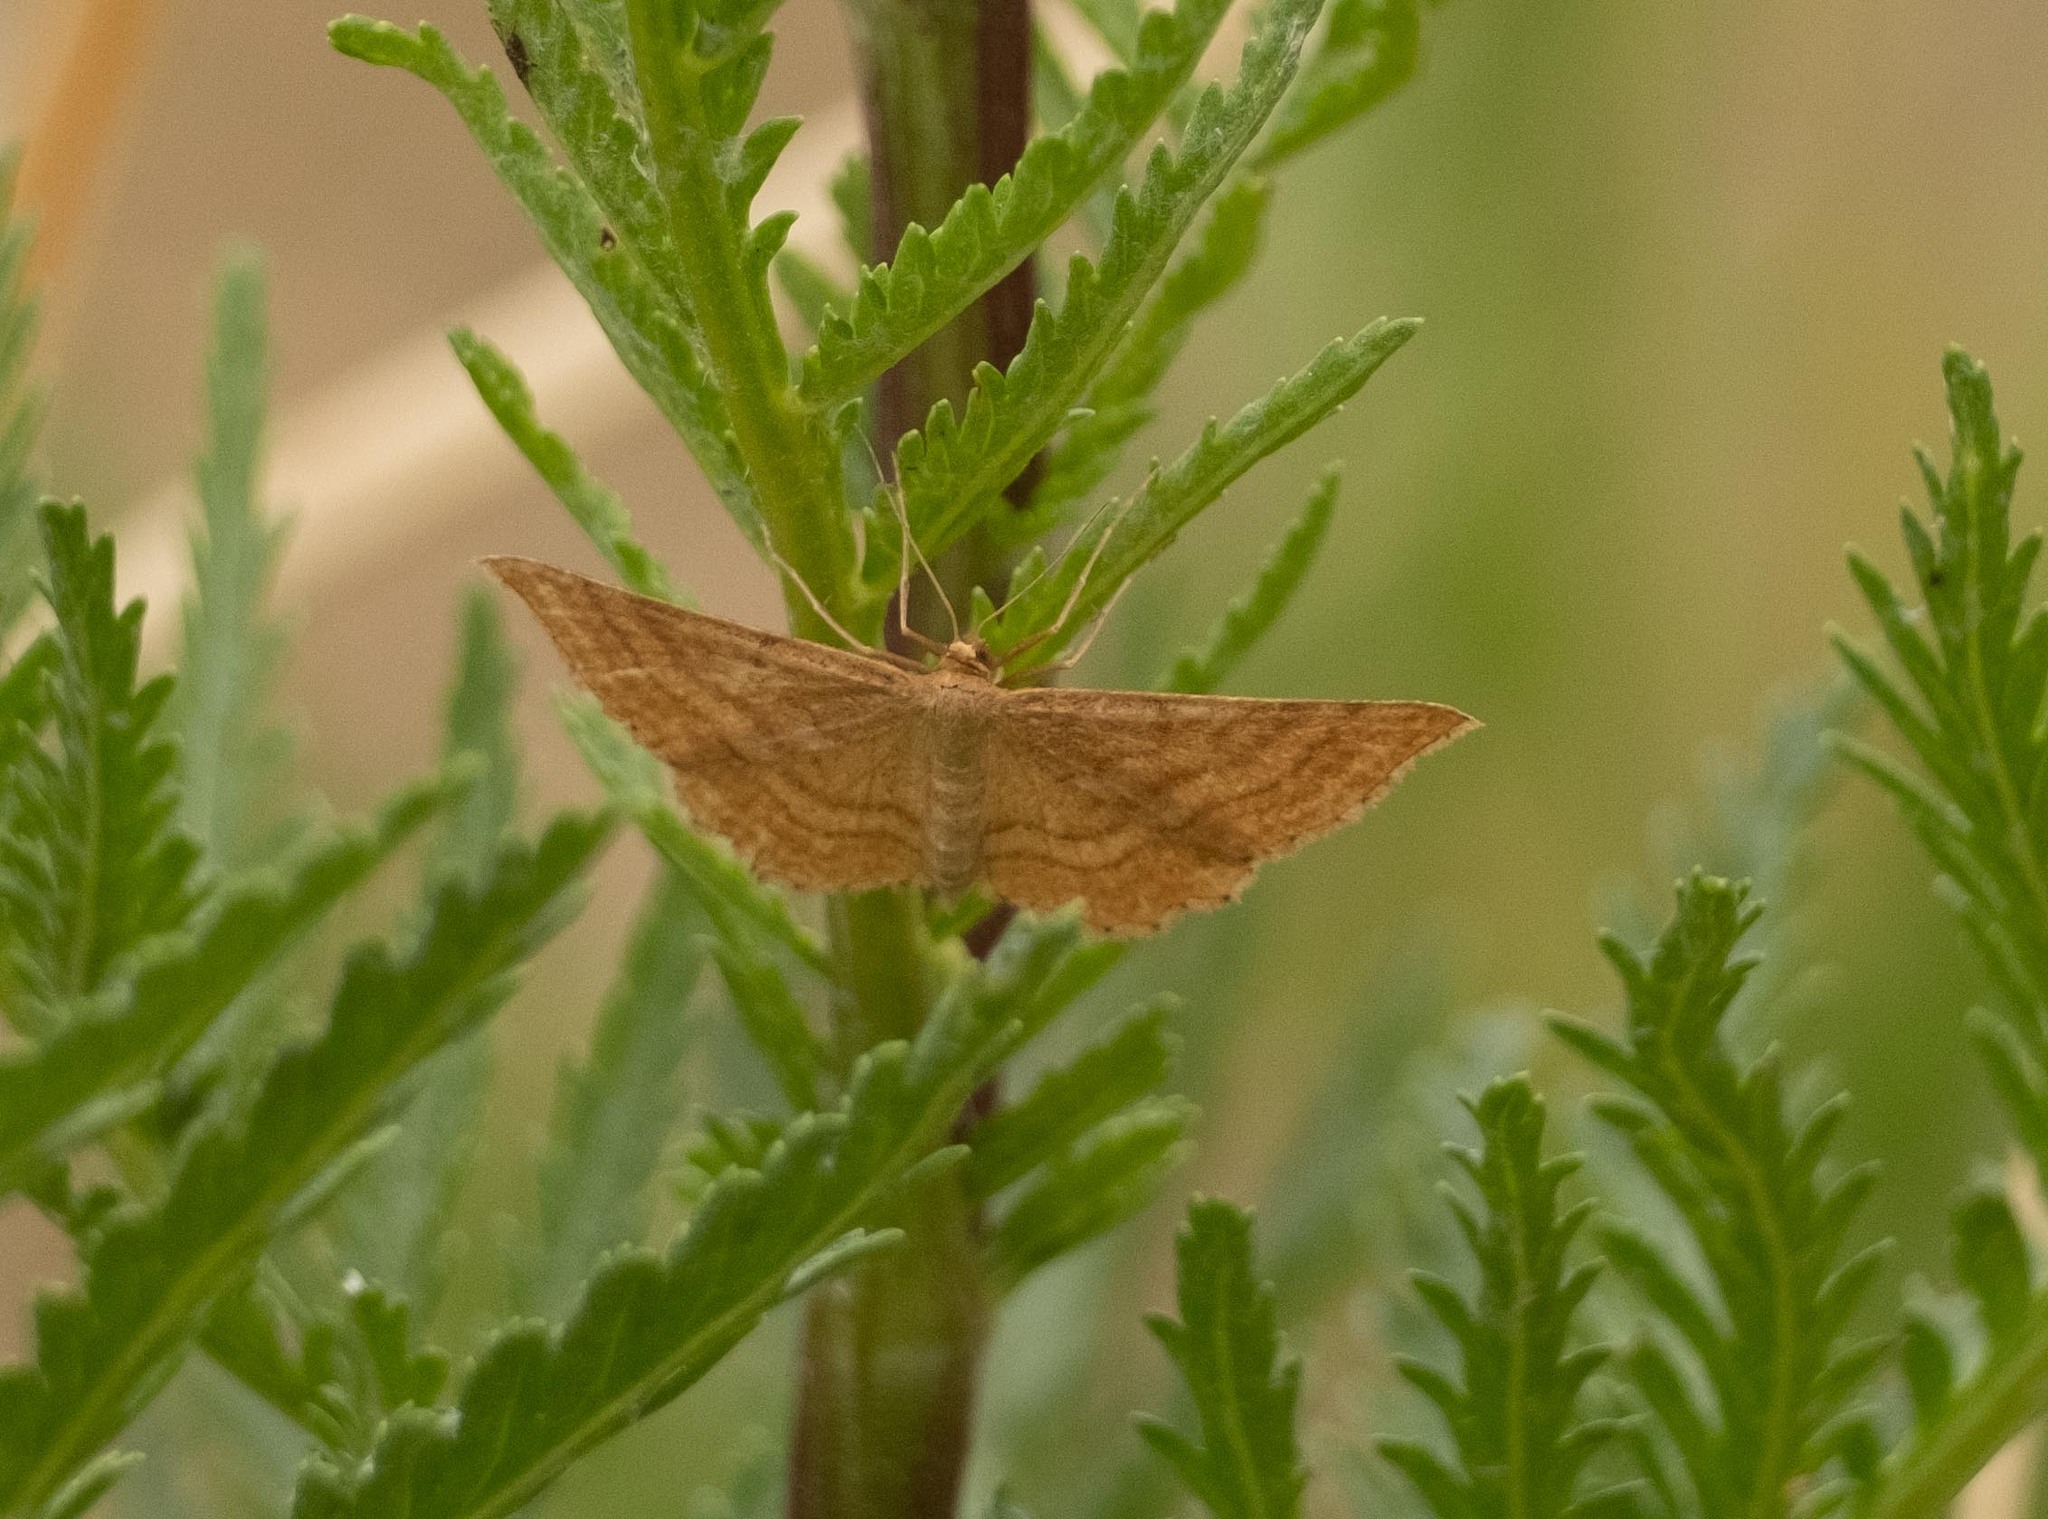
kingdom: Animalia
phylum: Arthropoda
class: Insecta
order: Lepidoptera
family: Geometridae
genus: Idaea
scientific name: Idaea ochrata
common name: Bright wave
